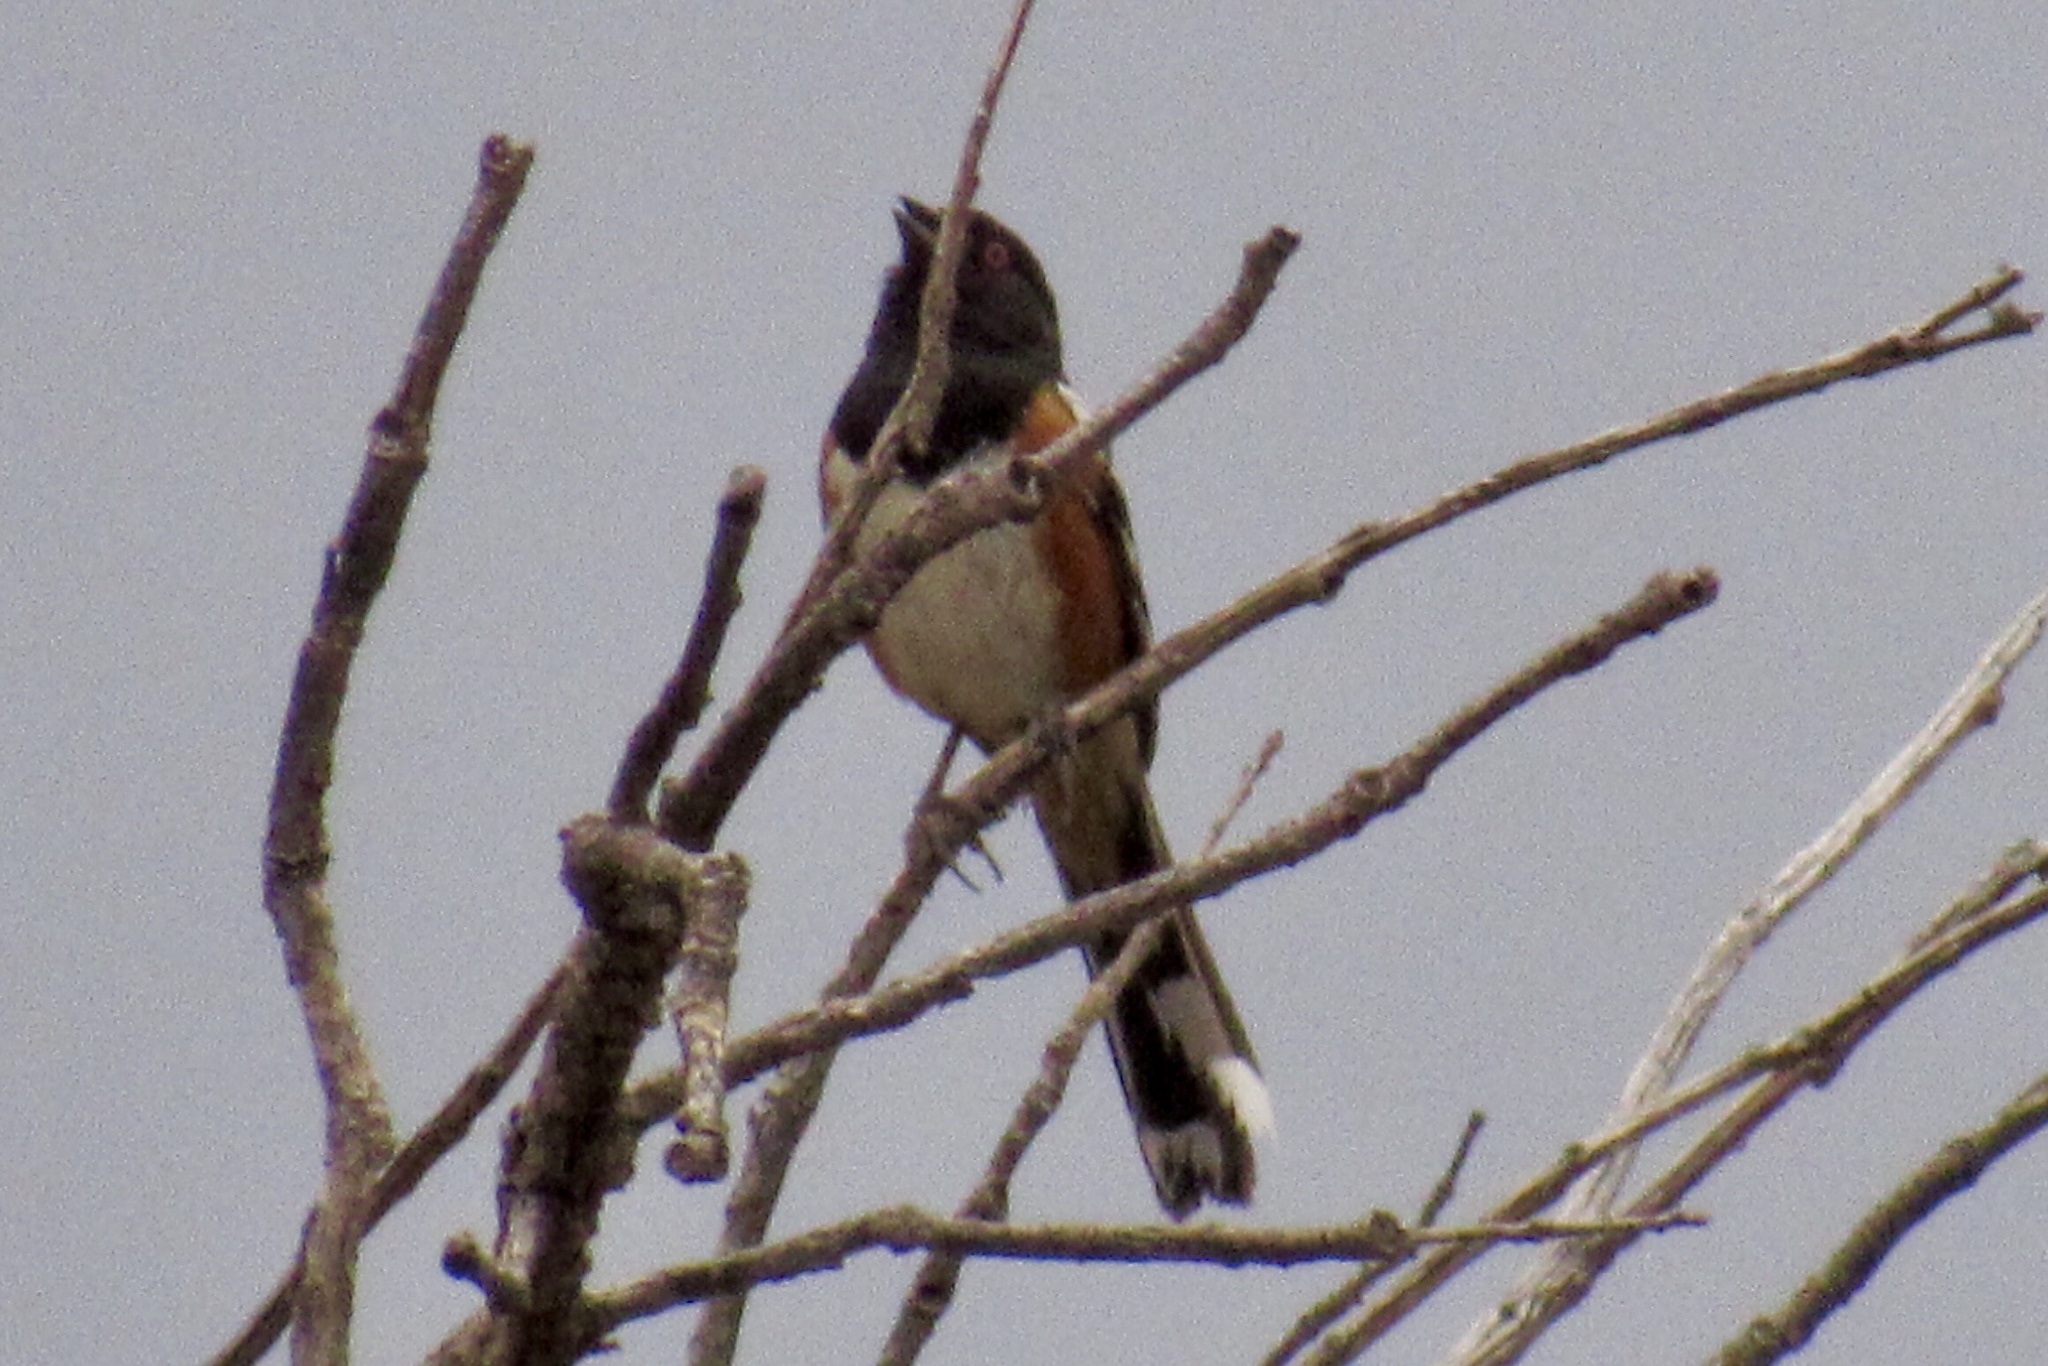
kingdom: Animalia
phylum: Chordata
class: Aves
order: Passeriformes
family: Passerellidae
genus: Pipilo
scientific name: Pipilo maculatus
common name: Spotted towhee
